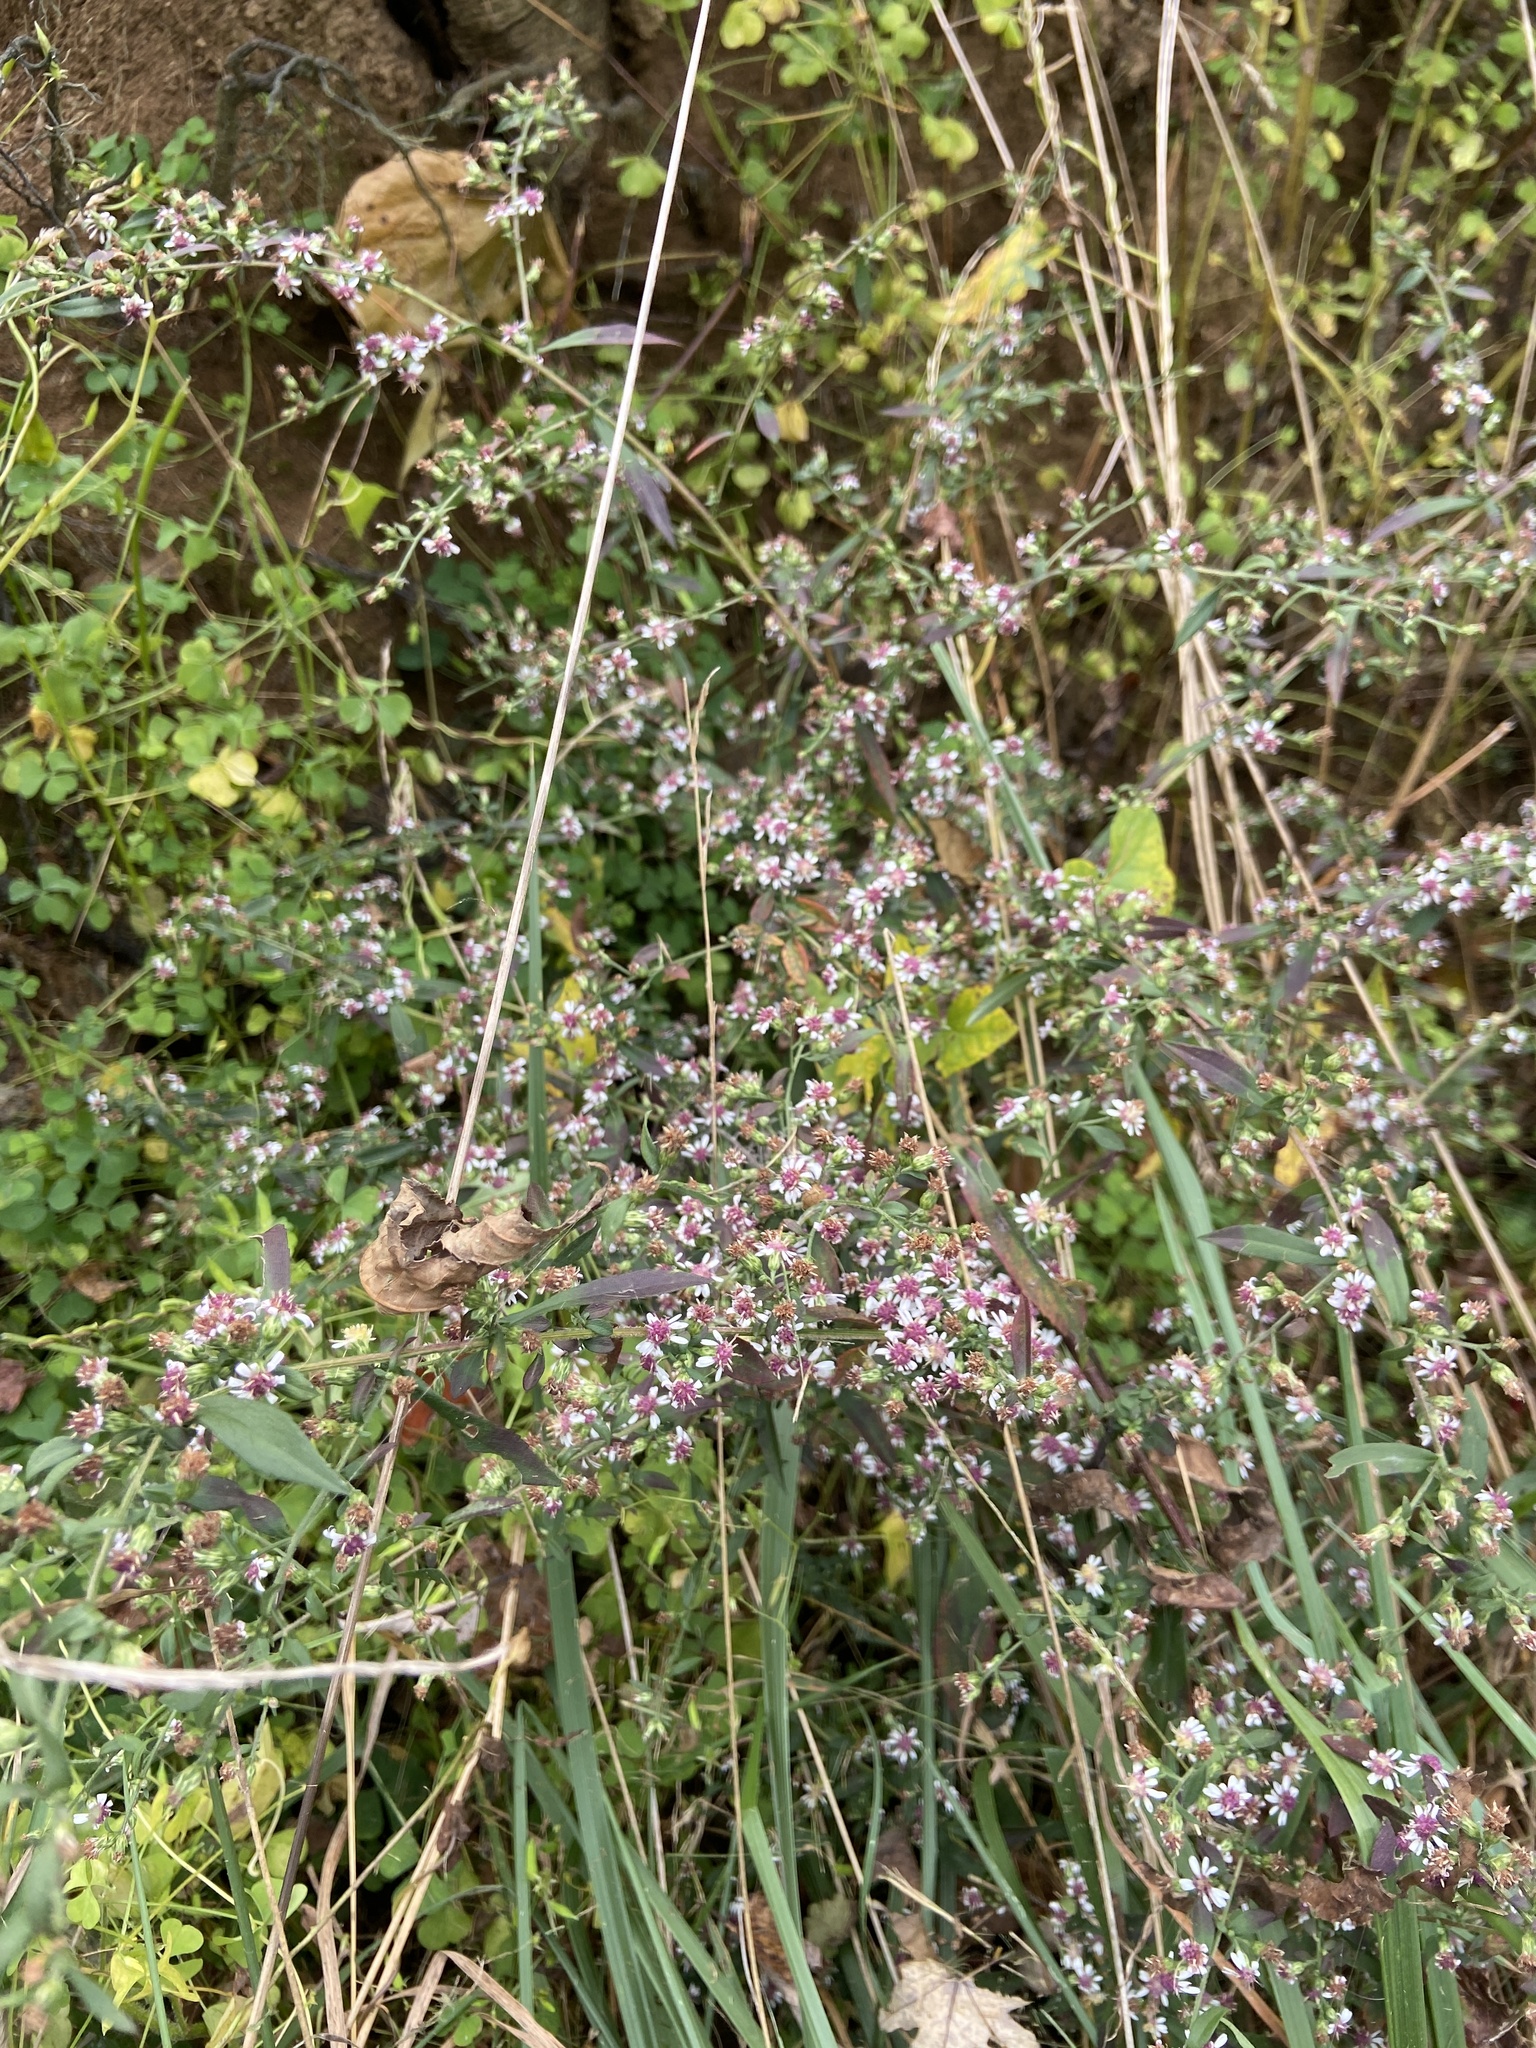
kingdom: Plantae
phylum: Tracheophyta
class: Magnoliopsida
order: Asterales
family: Asteraceae
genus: Symphyotrichum
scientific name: Symphyotrichum lateriflorum
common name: Calico aster
